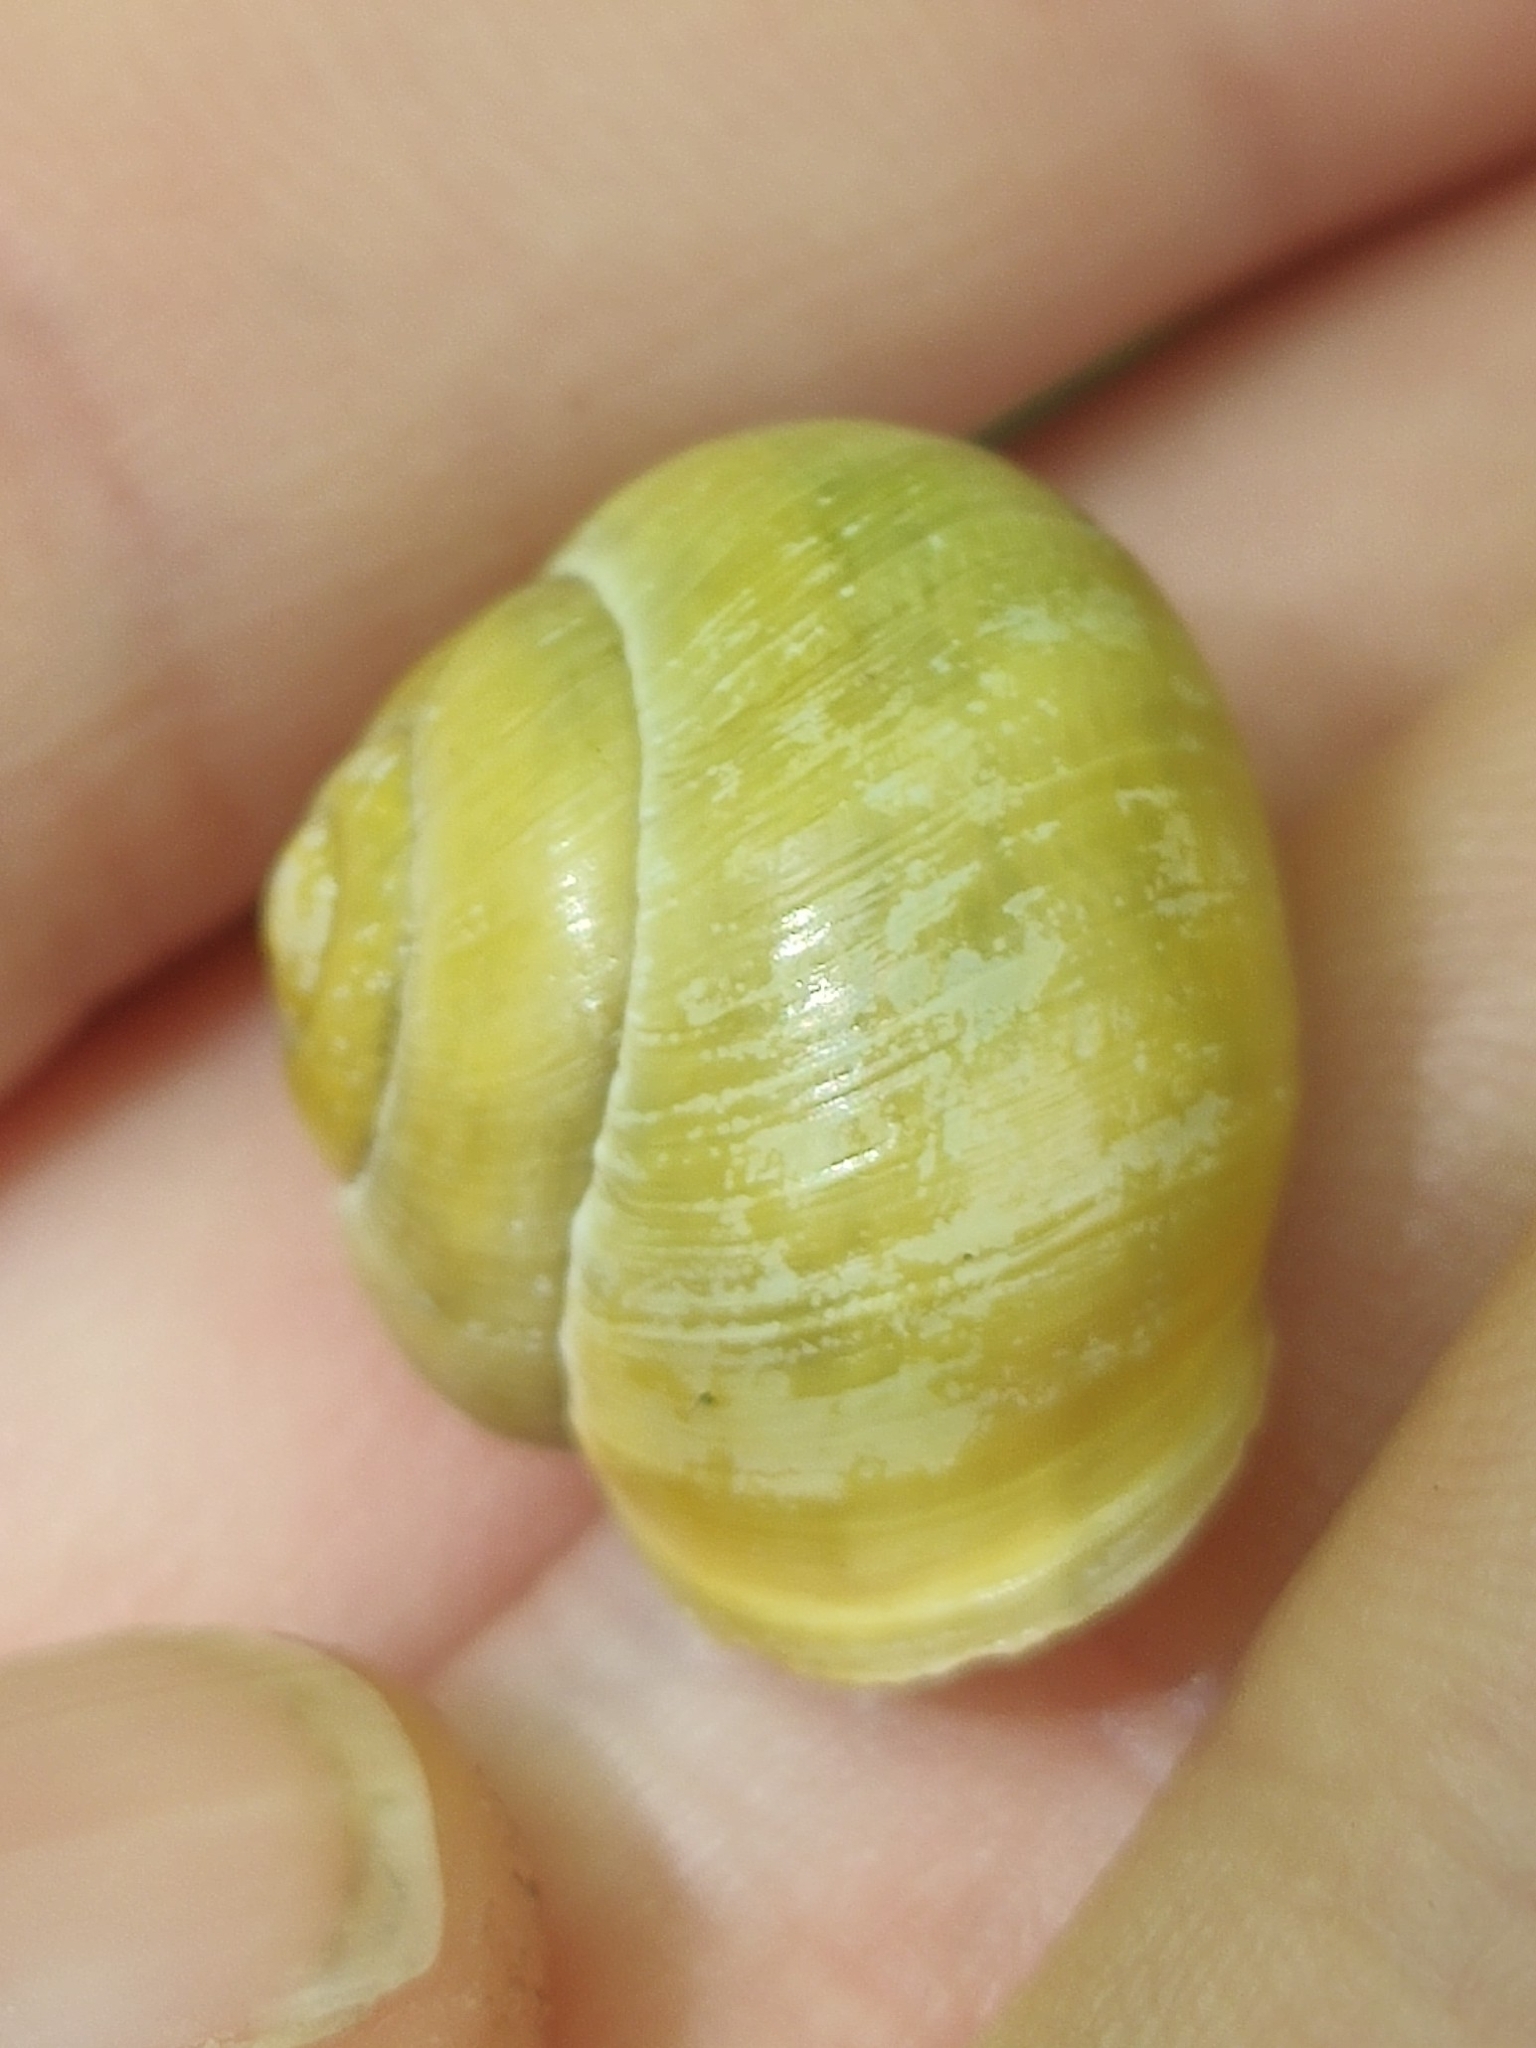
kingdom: Animalia
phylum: Mollusca
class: Gastropoda
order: Stylommatophora
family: Helicidae
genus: Cepaea
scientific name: Cepaea hortensis
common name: White-lip gardensnail
